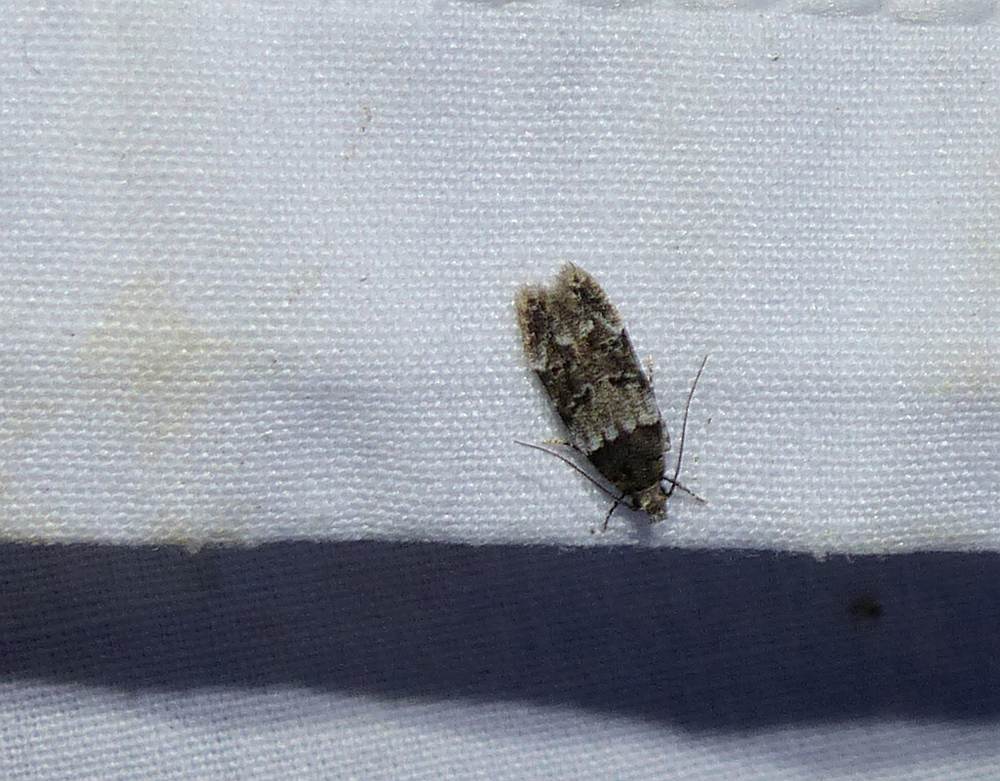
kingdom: Animalia
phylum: Arthropoda
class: Insecta
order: Lepidoptera
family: Gelechiidae
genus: Pubitelphusa
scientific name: Pubitelphusa latifasciella
